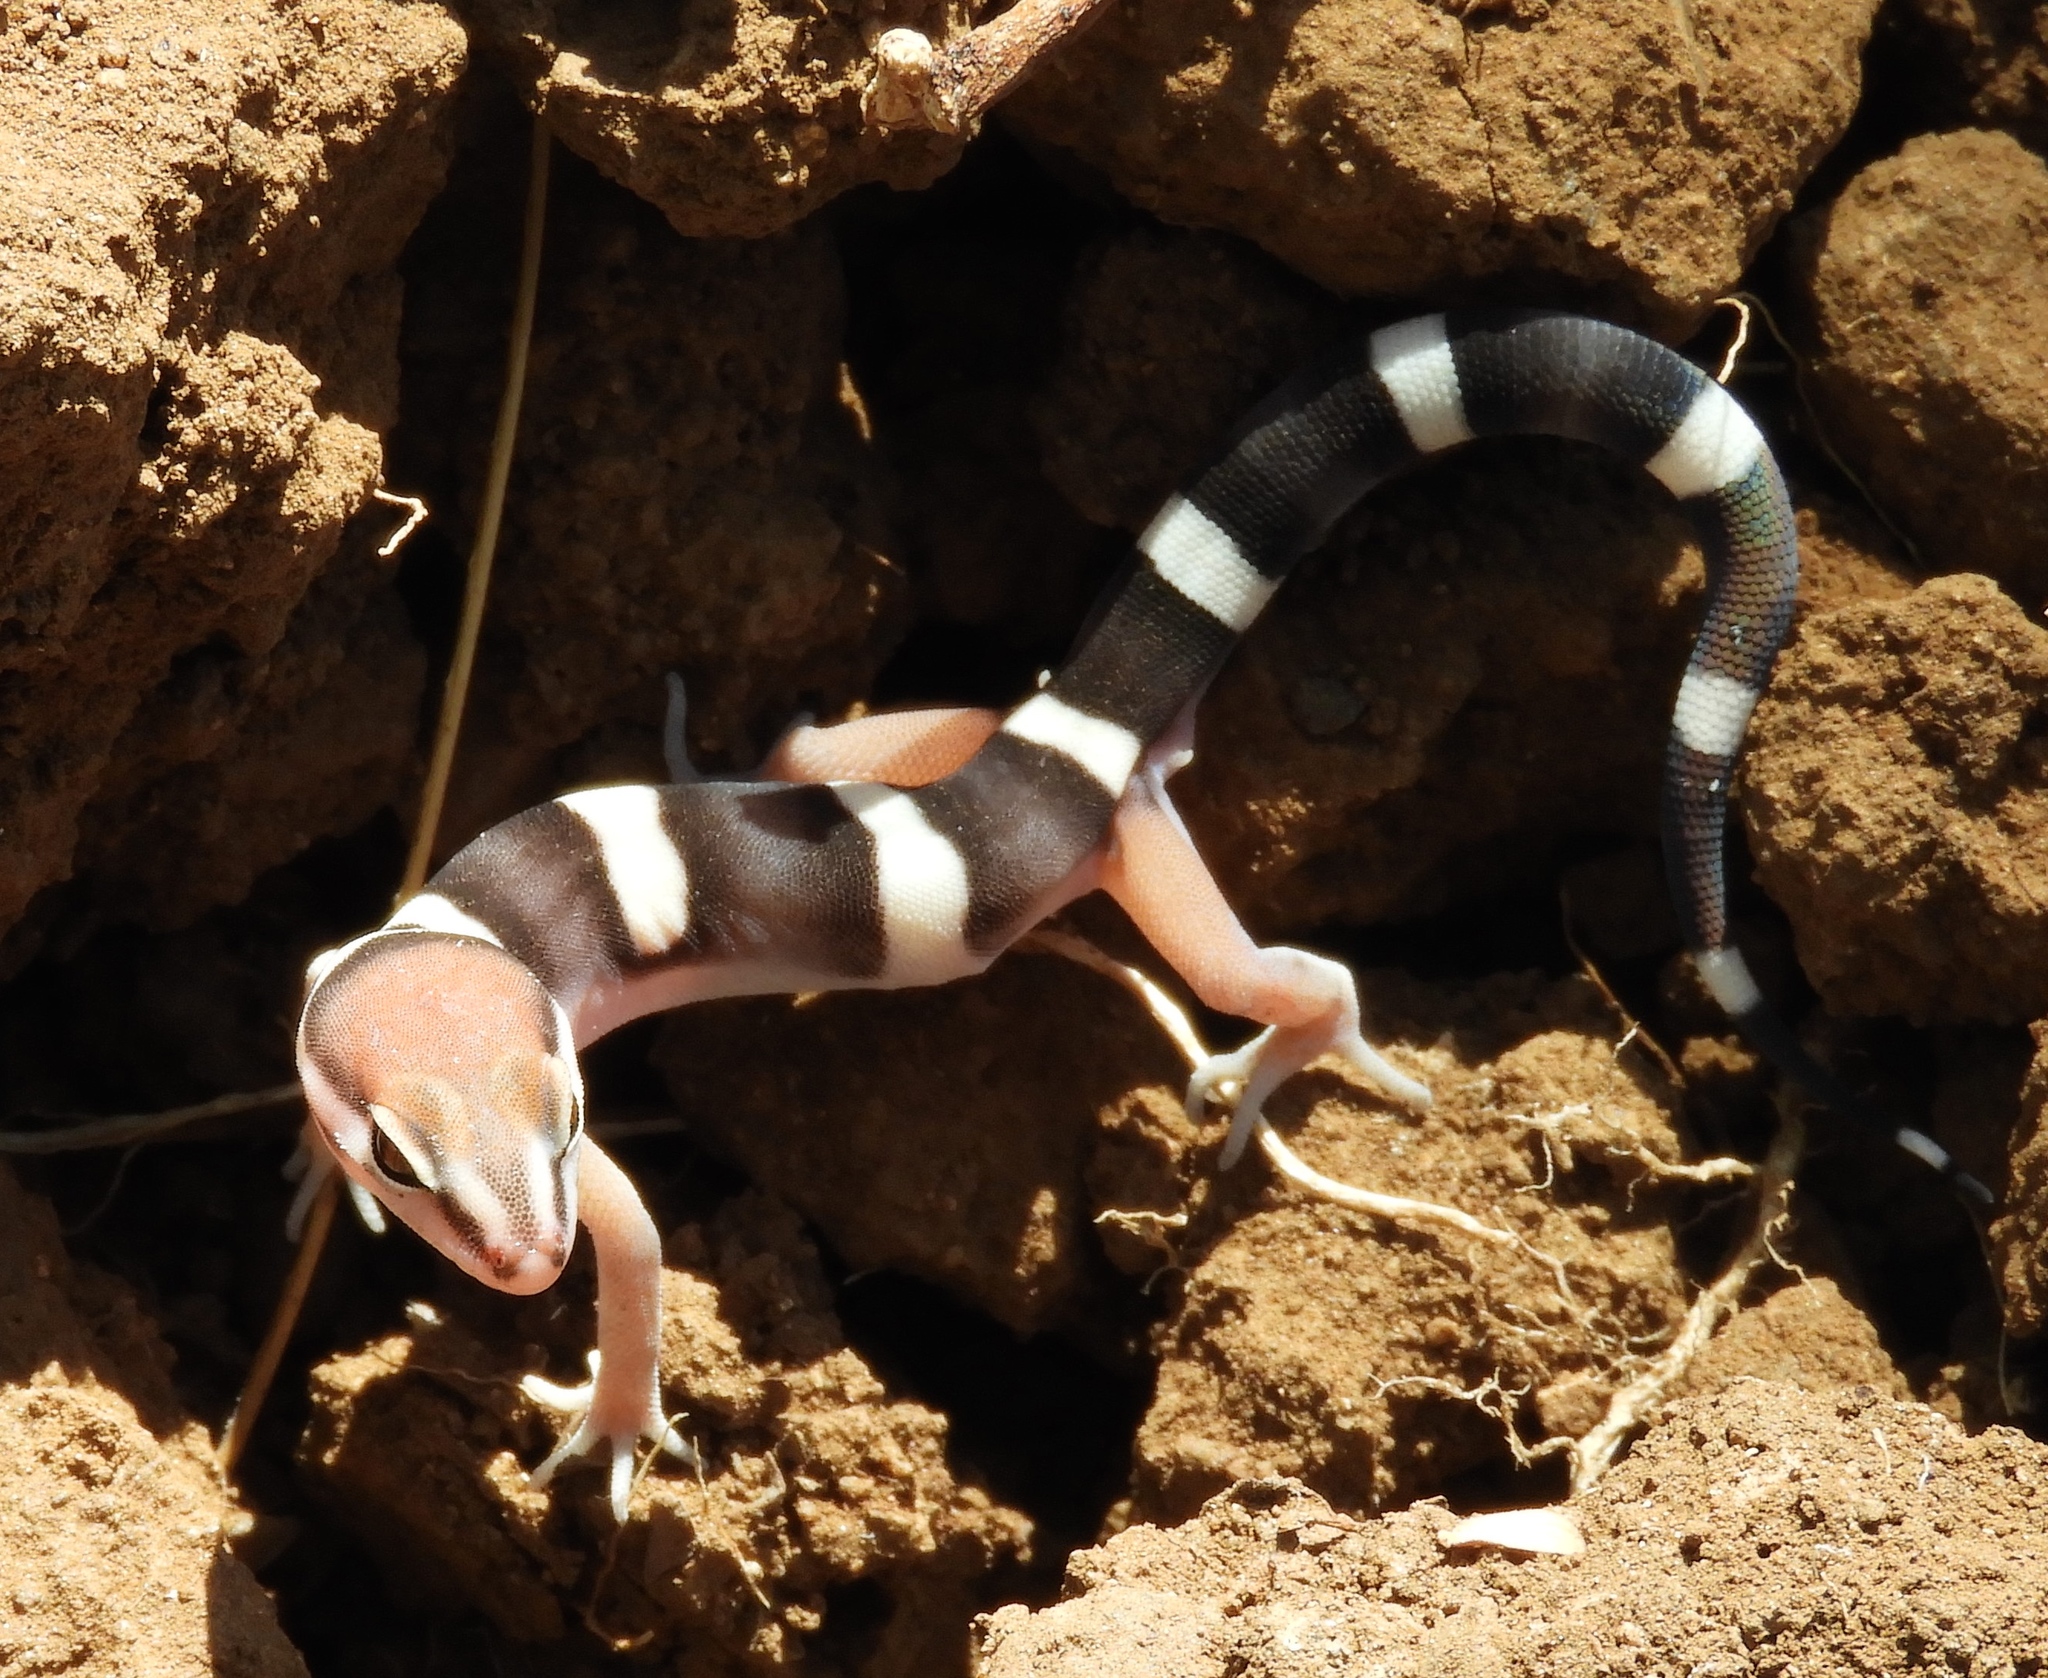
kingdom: Animalia
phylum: Chordata
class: Squamata
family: Eublepharidae
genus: Coleonyx
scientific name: Coleonyx fasciatus
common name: Black banded gecko
